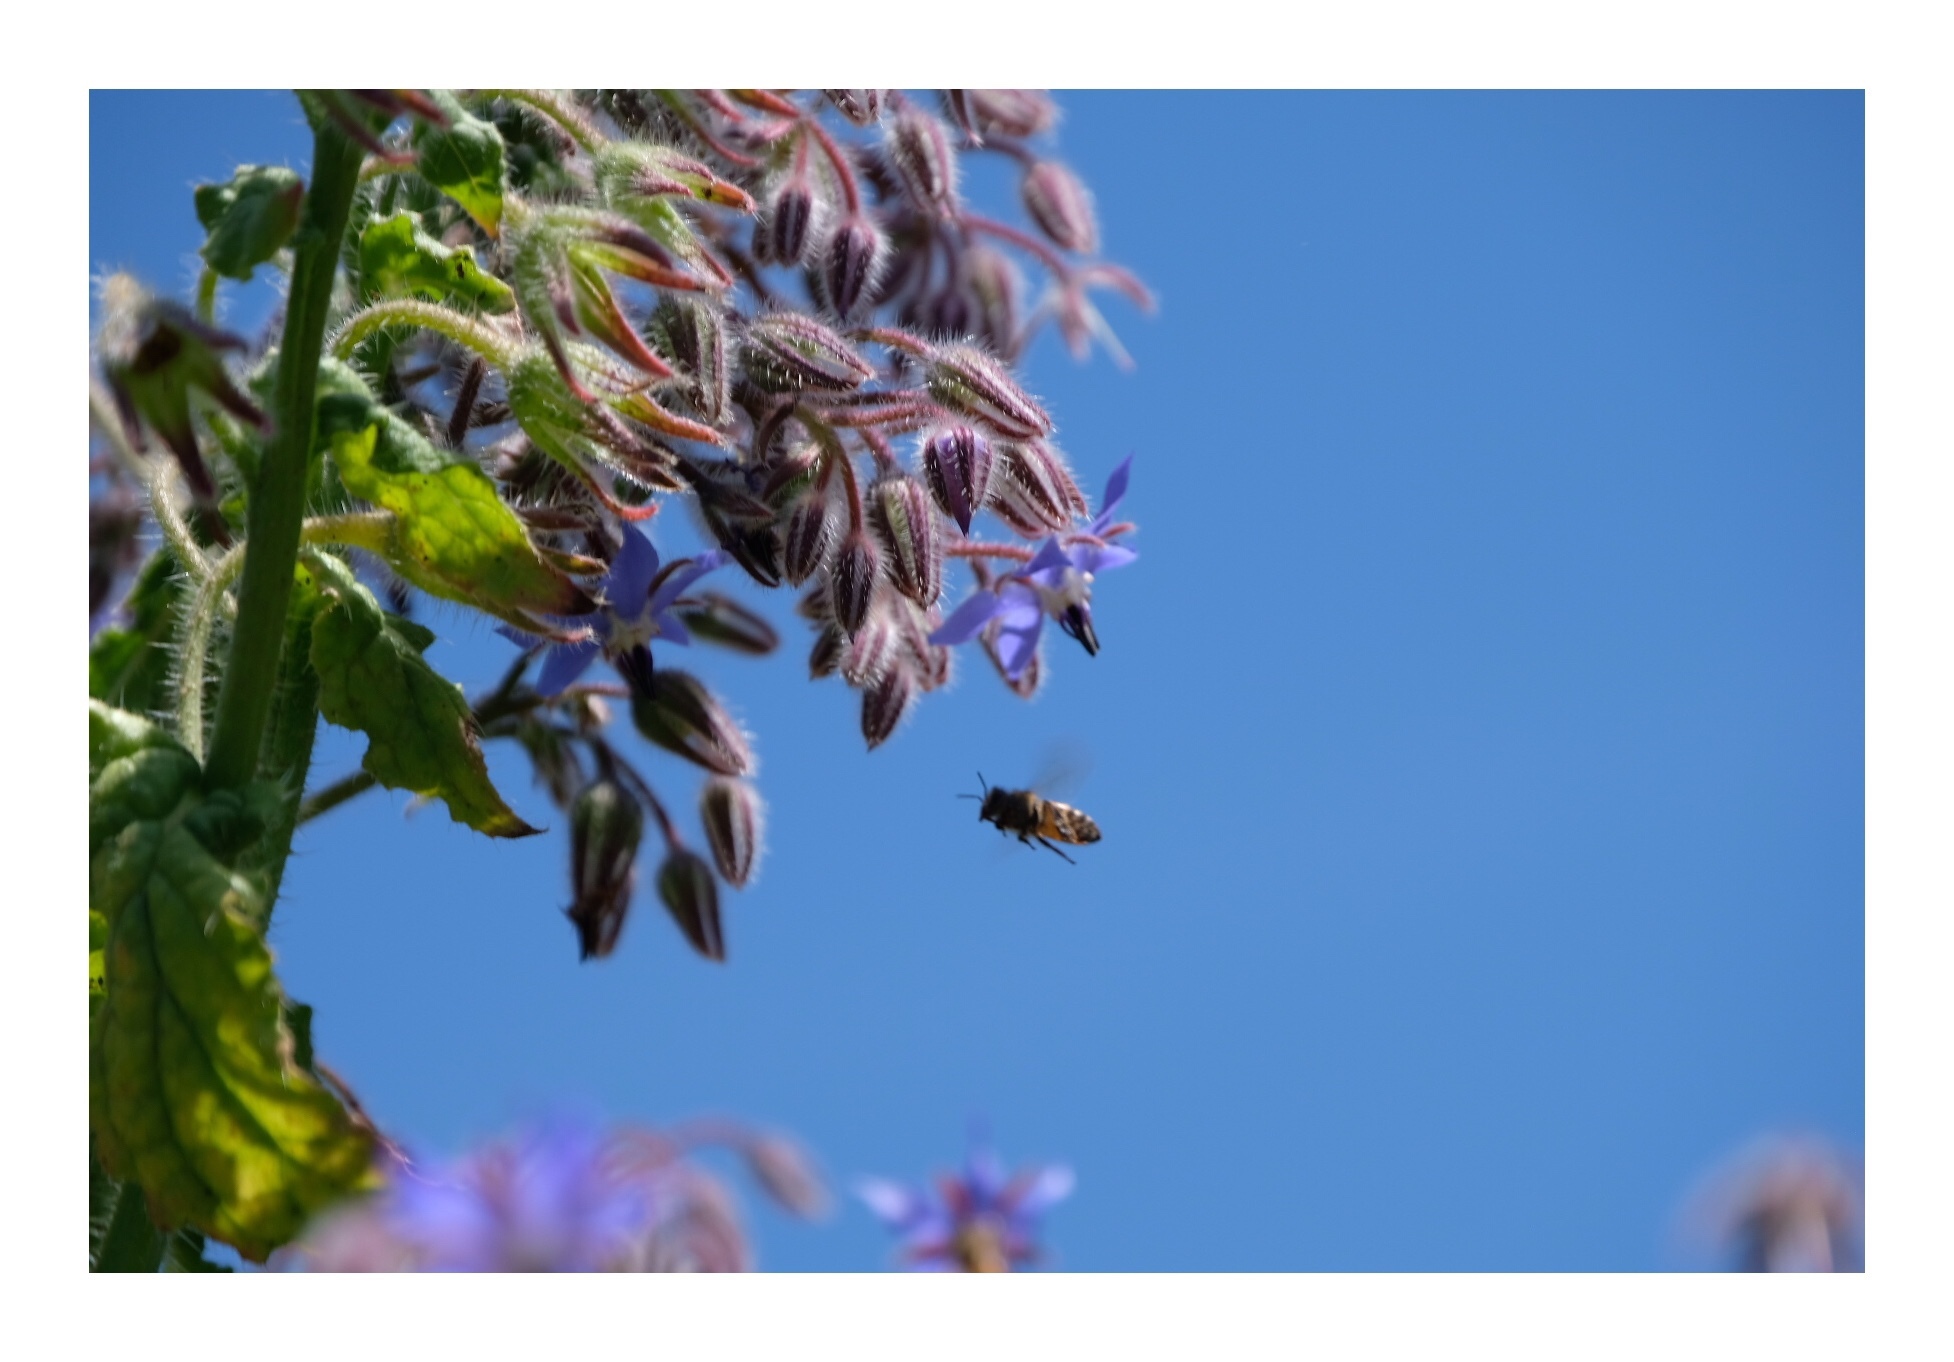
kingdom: Animalia
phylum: Arthropoda
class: Insecta
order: Hymenoptera
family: Apidae
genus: Apis
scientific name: Apis mellifera
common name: Honey bee
